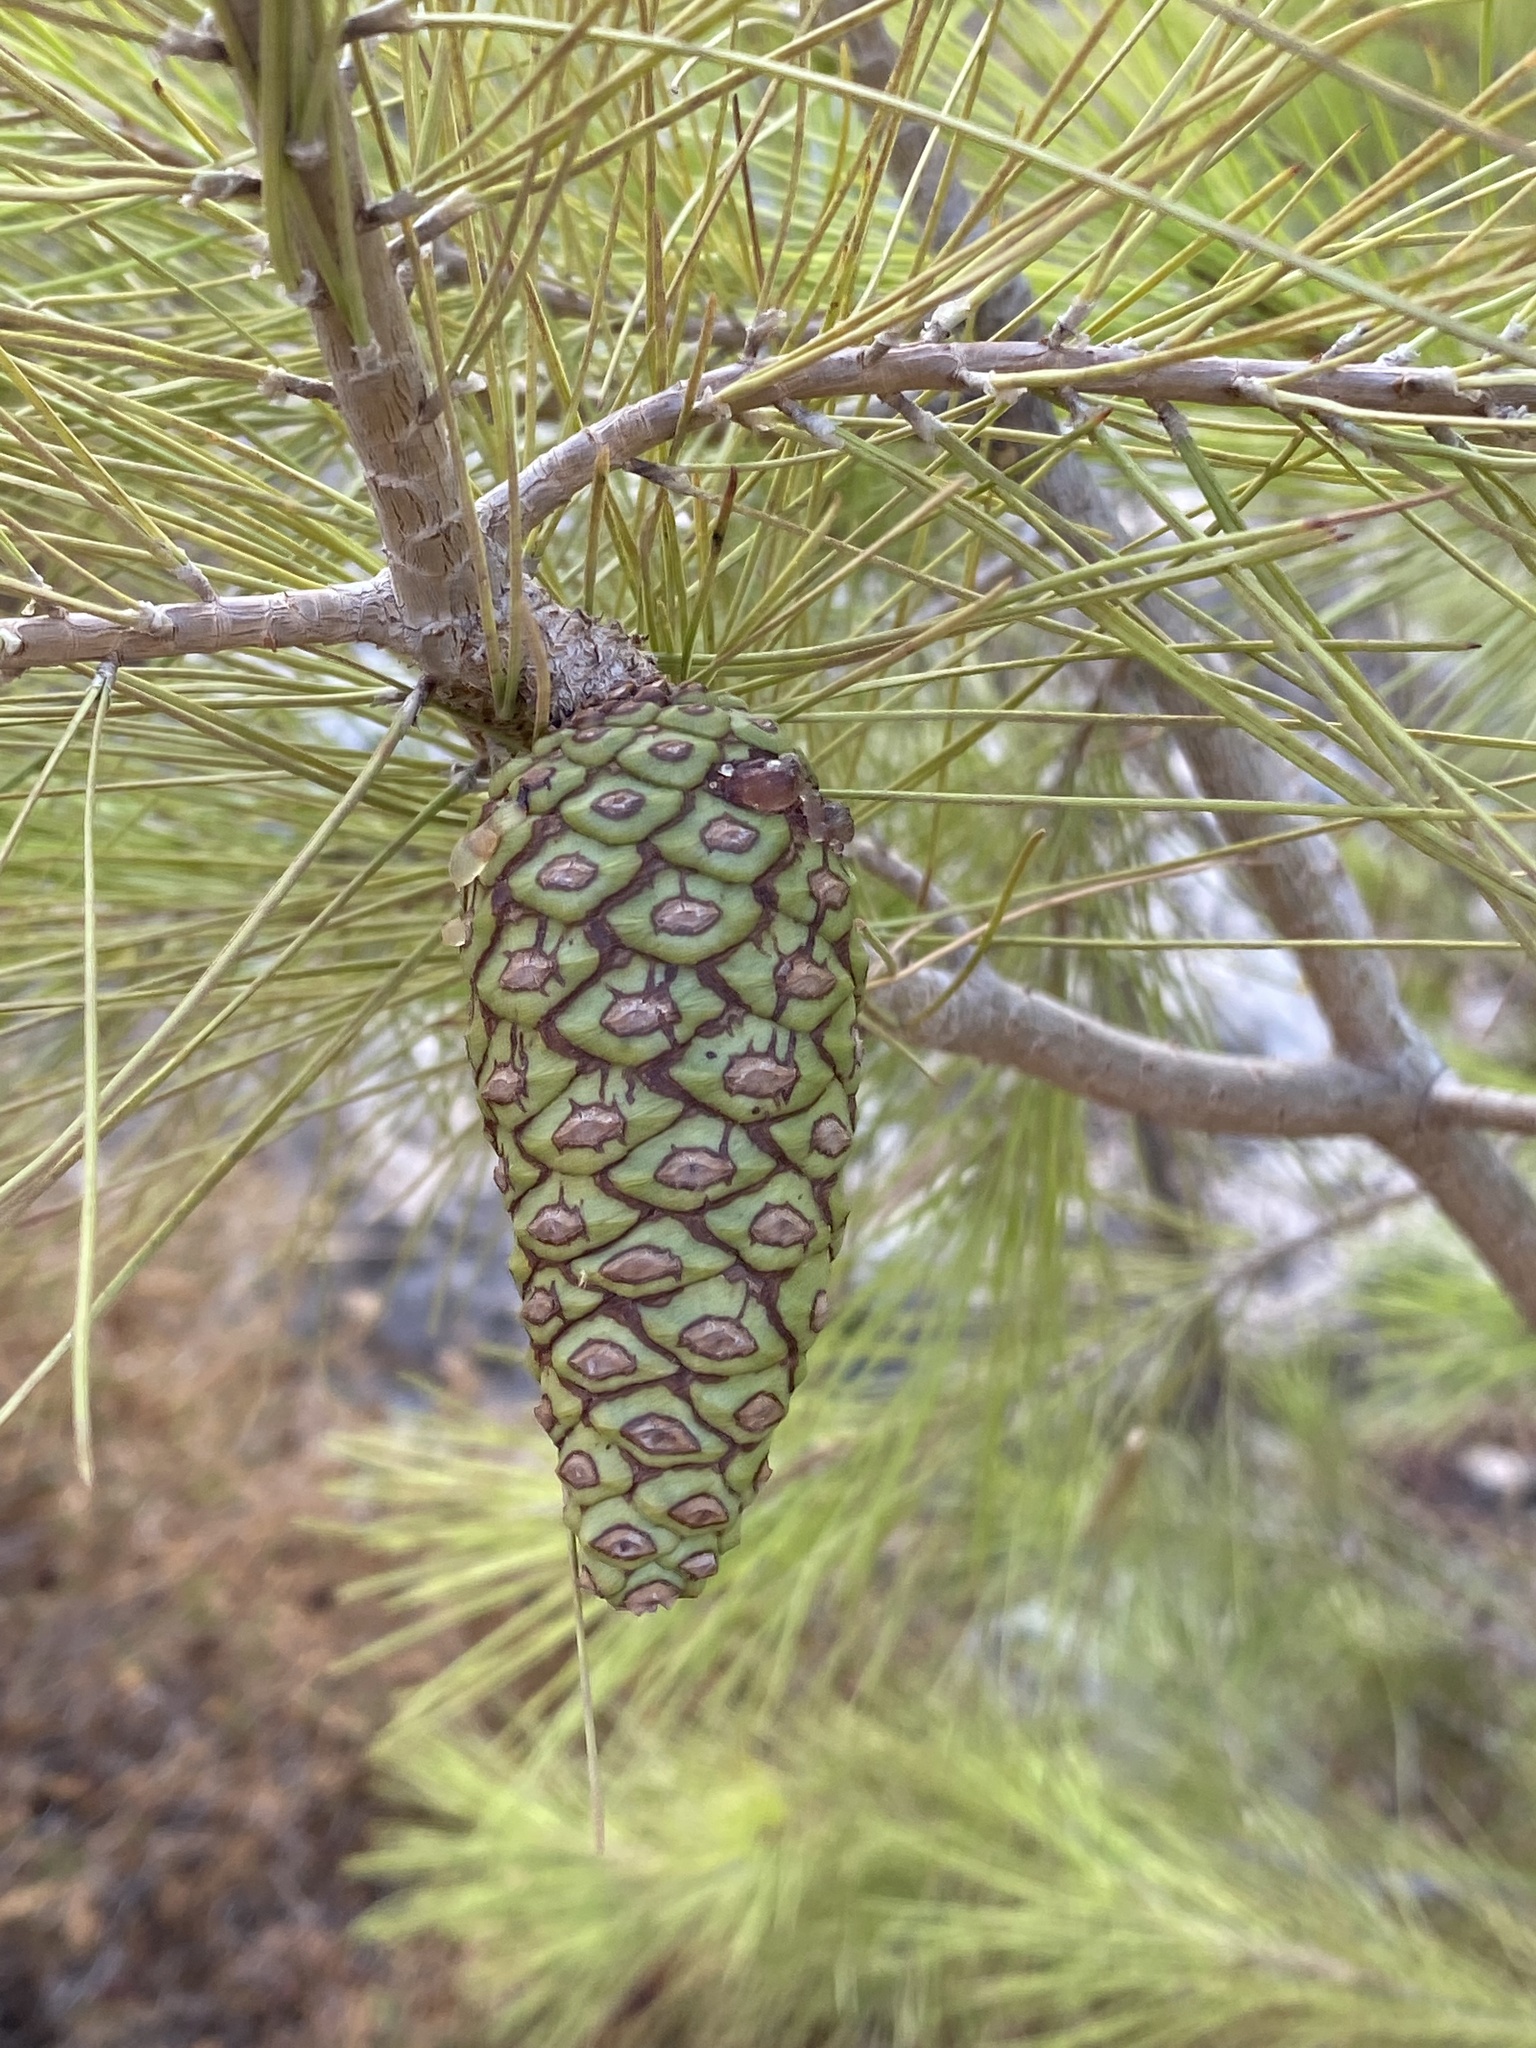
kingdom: Plantae
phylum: Tracheophyta
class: Magnoliopsida
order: Rosales
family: Rosaceae
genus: Pyrus
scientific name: Pyrus spinosa
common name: Almond-leaf pear
